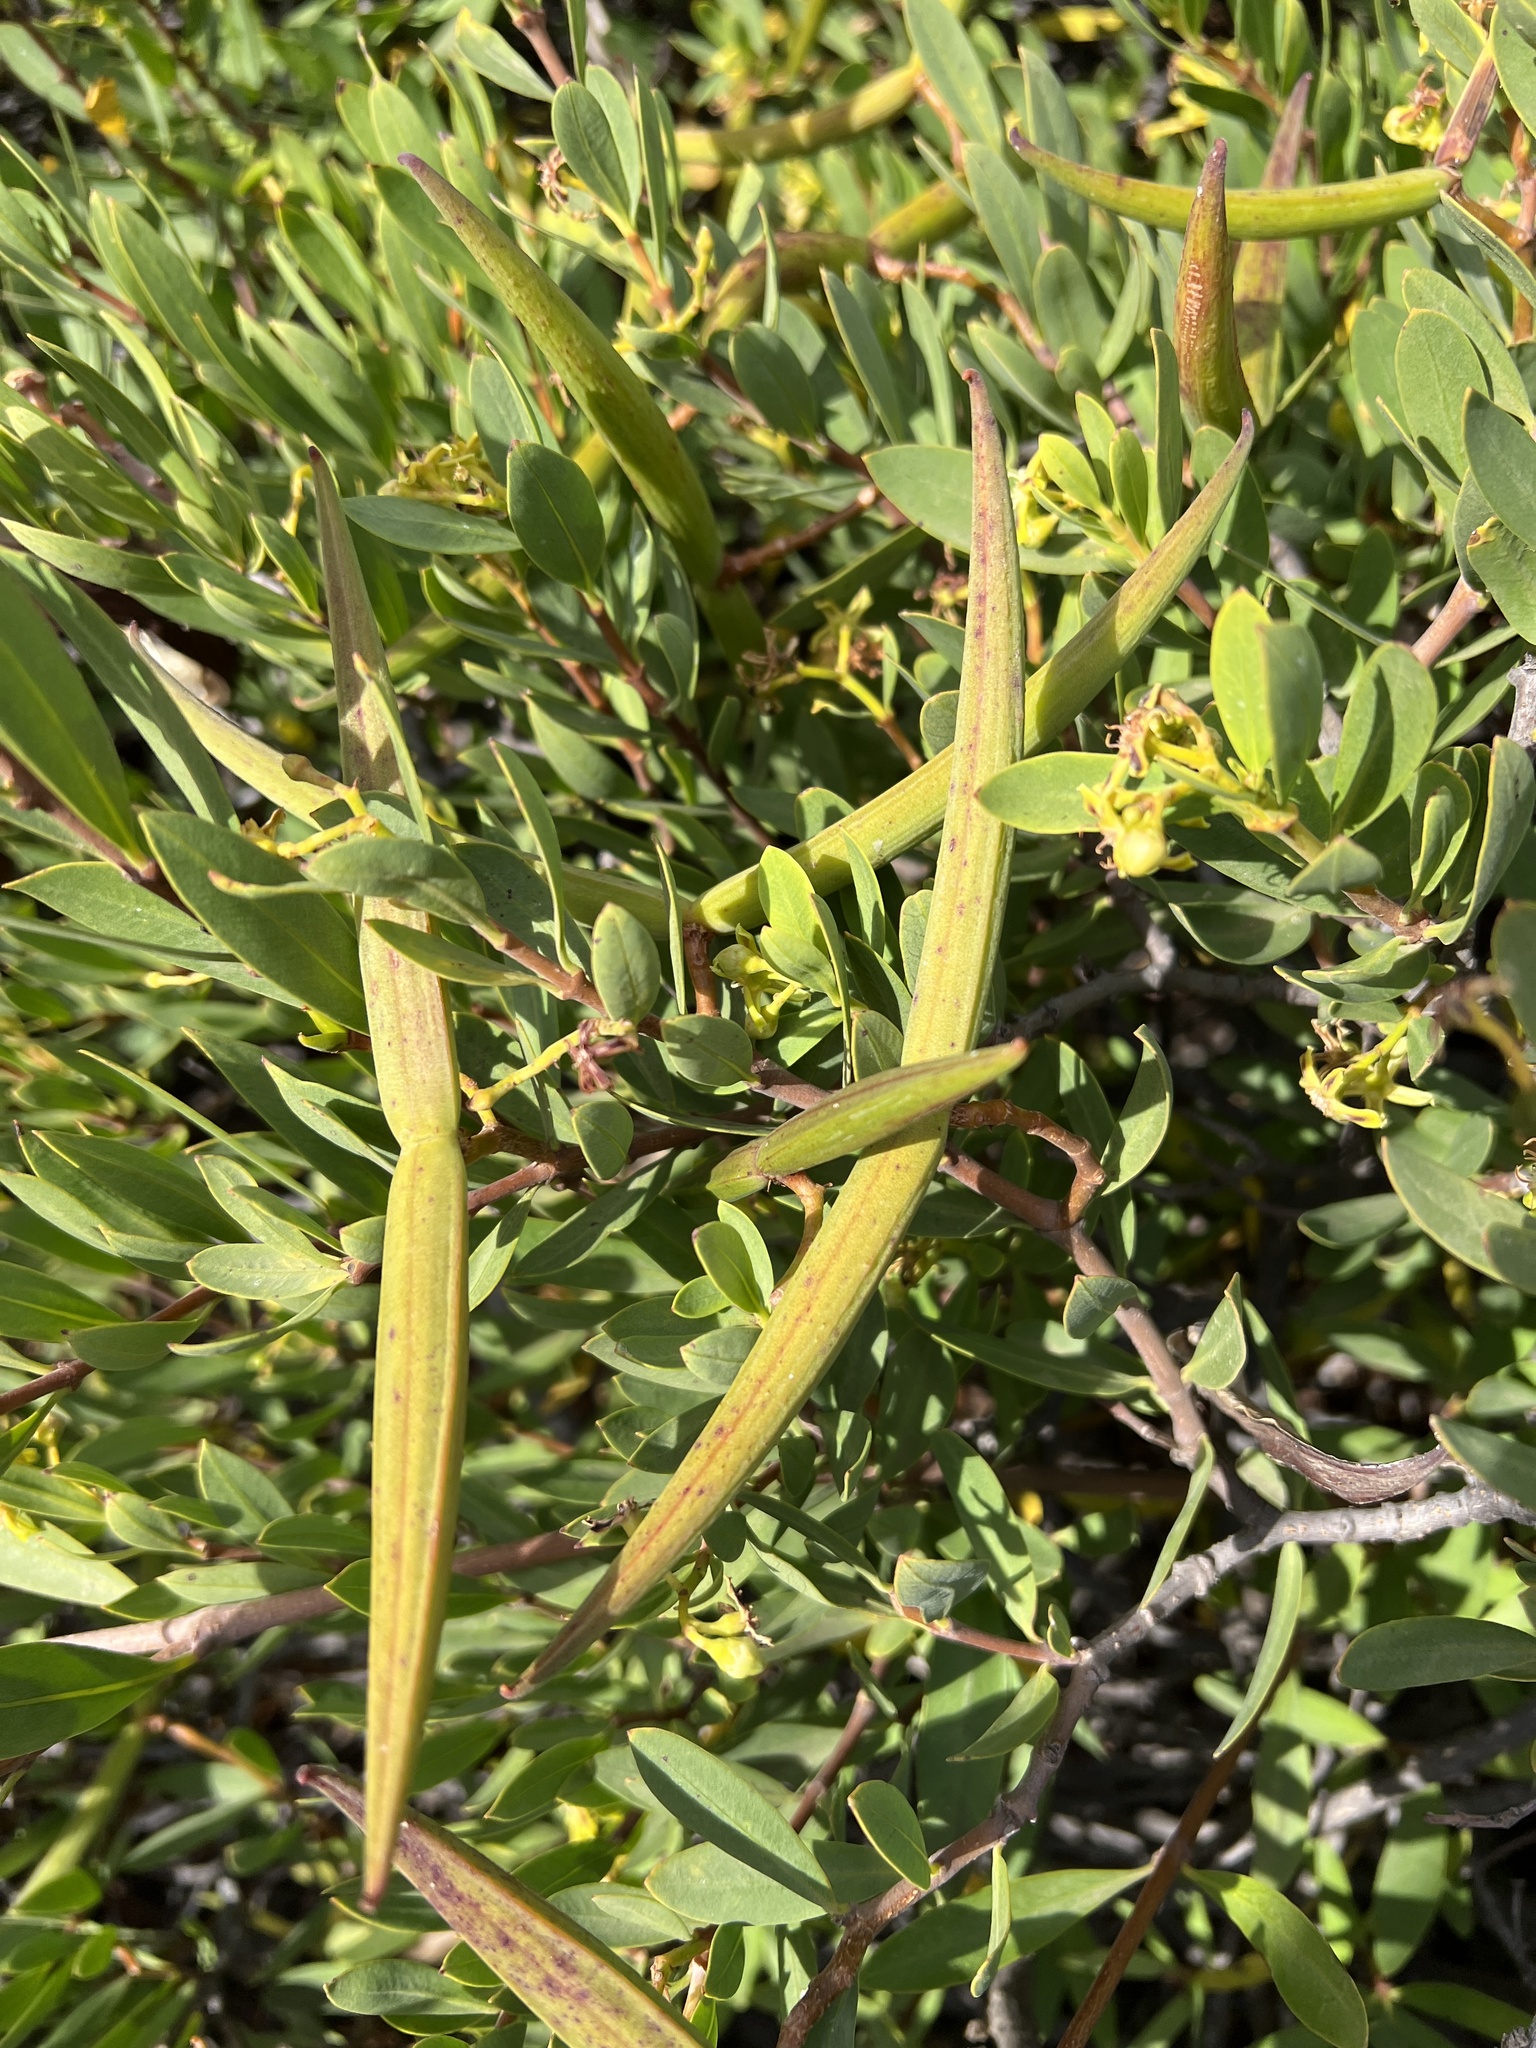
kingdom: Plantae
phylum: Tracheophyta
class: Magnoliopsida
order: Gentianales
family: Apocynaceae
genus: Periploca
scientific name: Periploca laevigata
